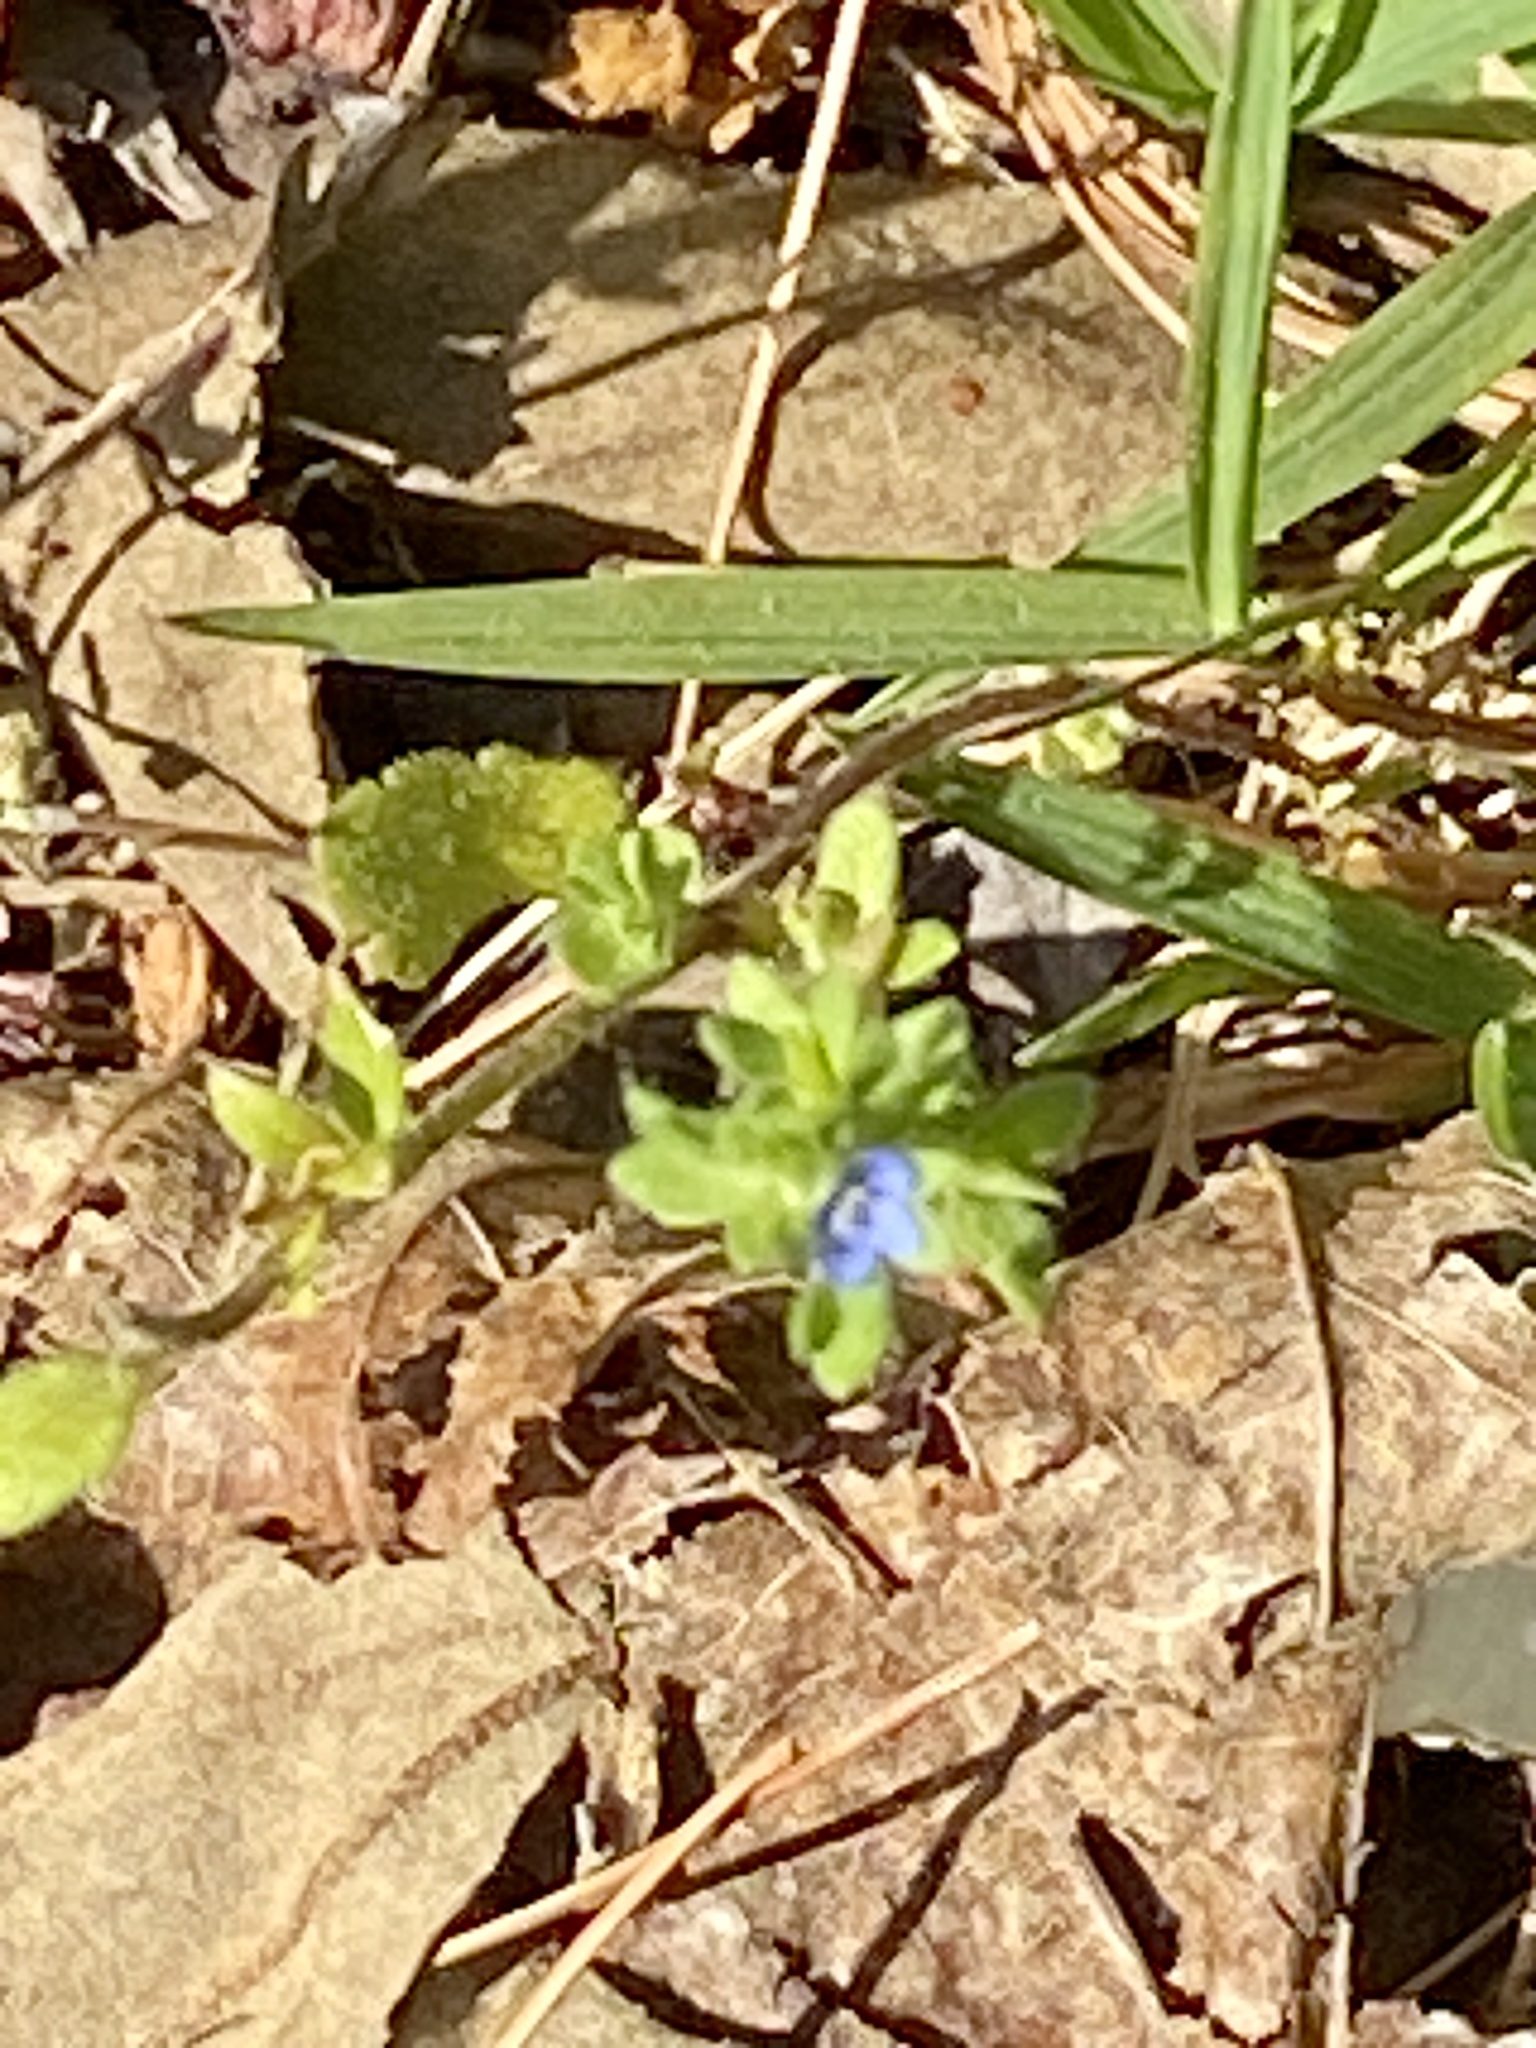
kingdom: Plantae
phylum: Tracheophyta
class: Magnoliopsida
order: Lamiales
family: Plantaginaceae
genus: Veronica
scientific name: Veronica arvensis
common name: Corn speedwell
